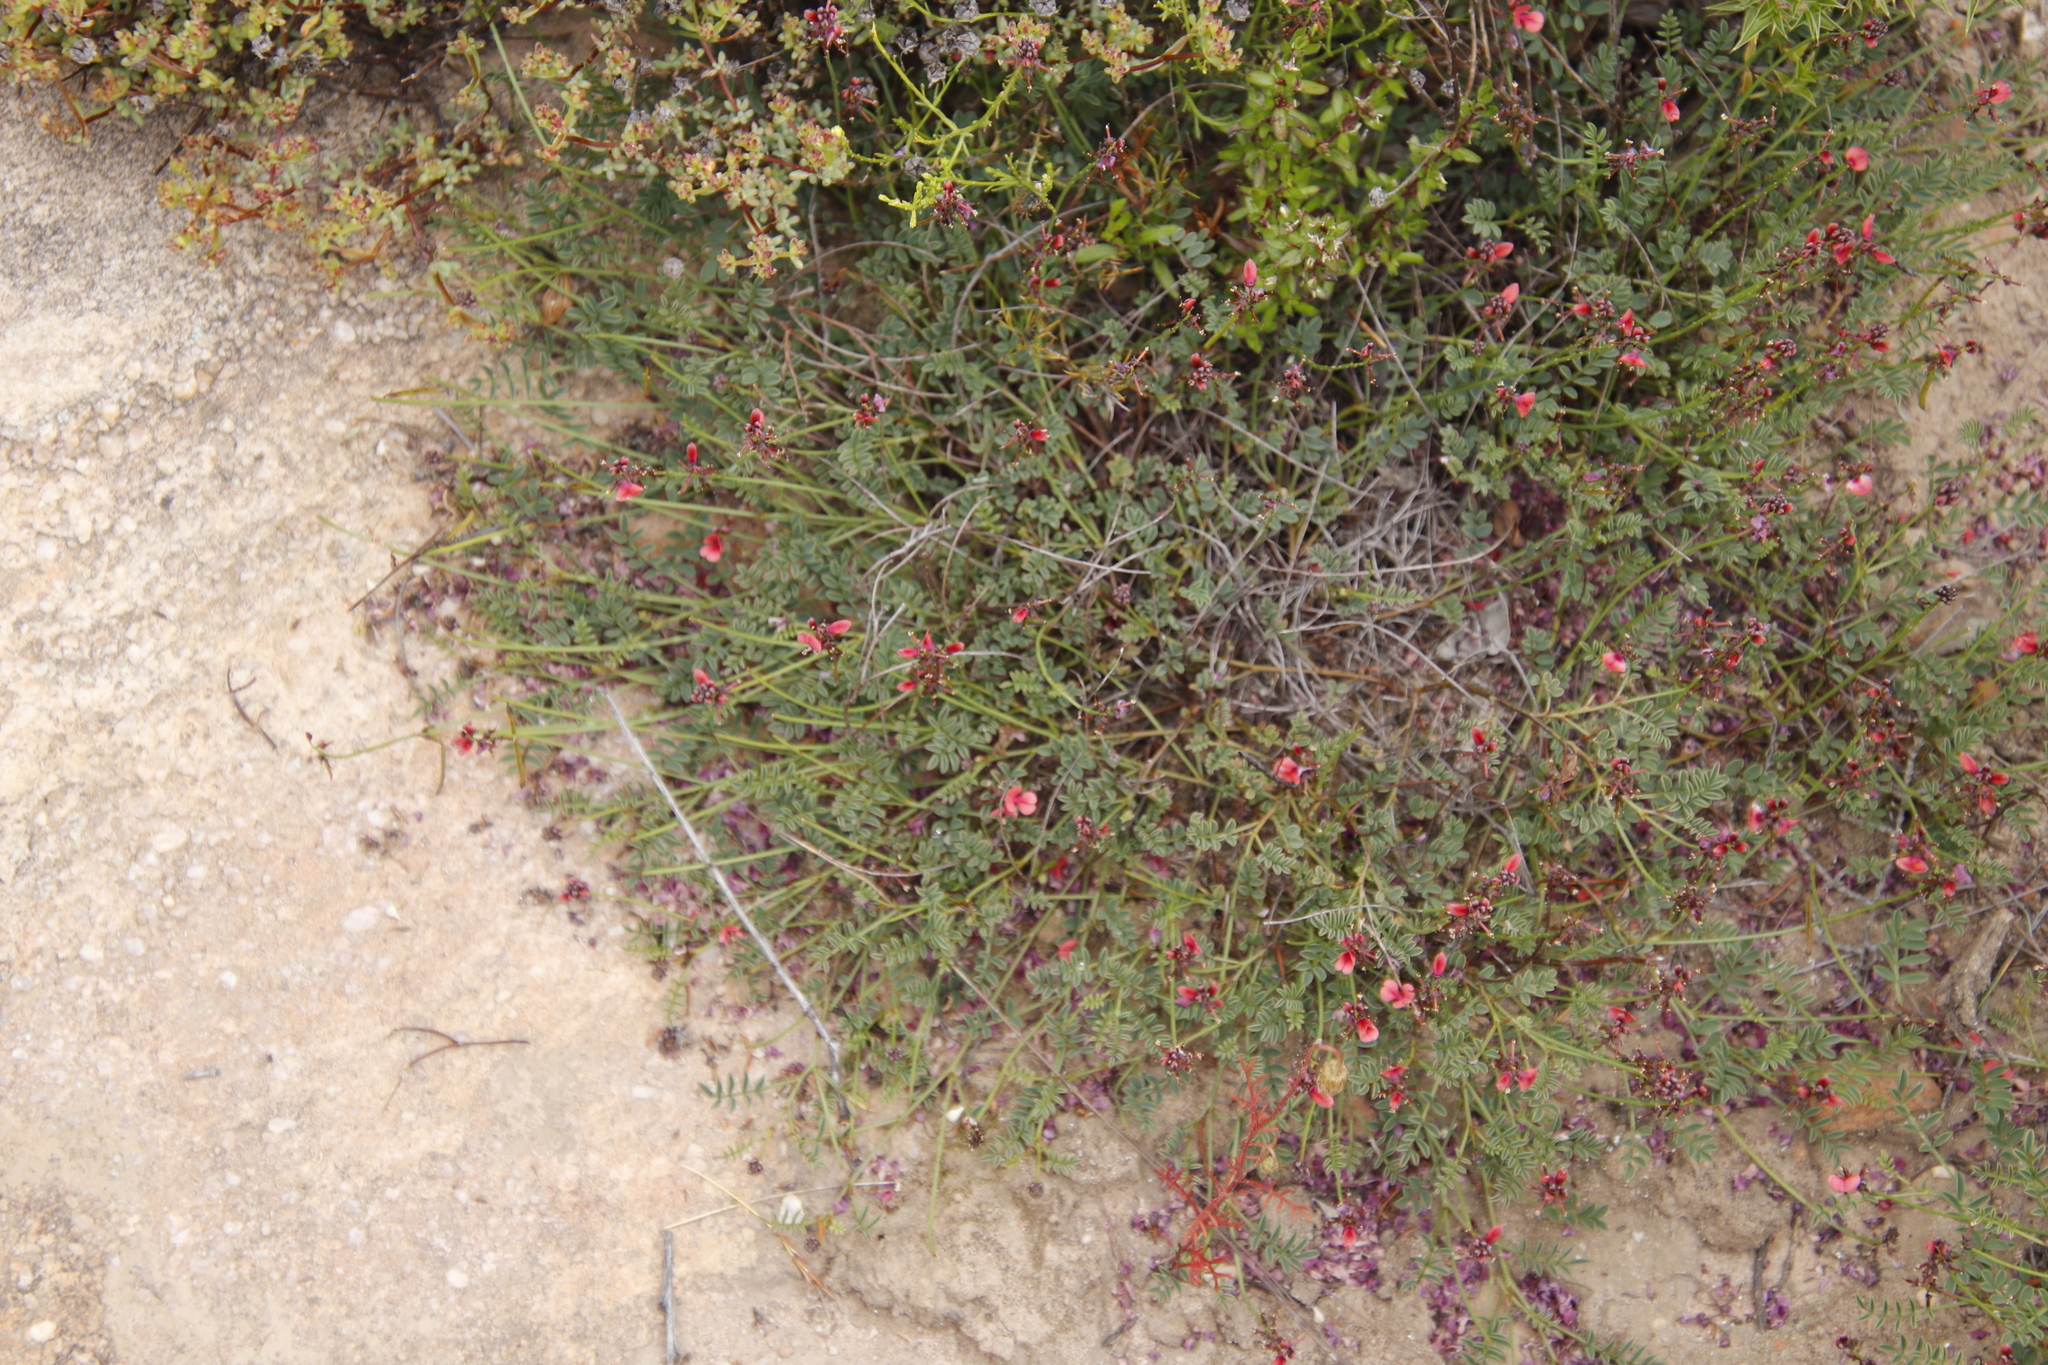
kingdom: Plantae
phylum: Tracheophyta
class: Magnoliopsida
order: Fabales
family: Fabaceae
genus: Indigofera
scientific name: Indigofera humifusa
